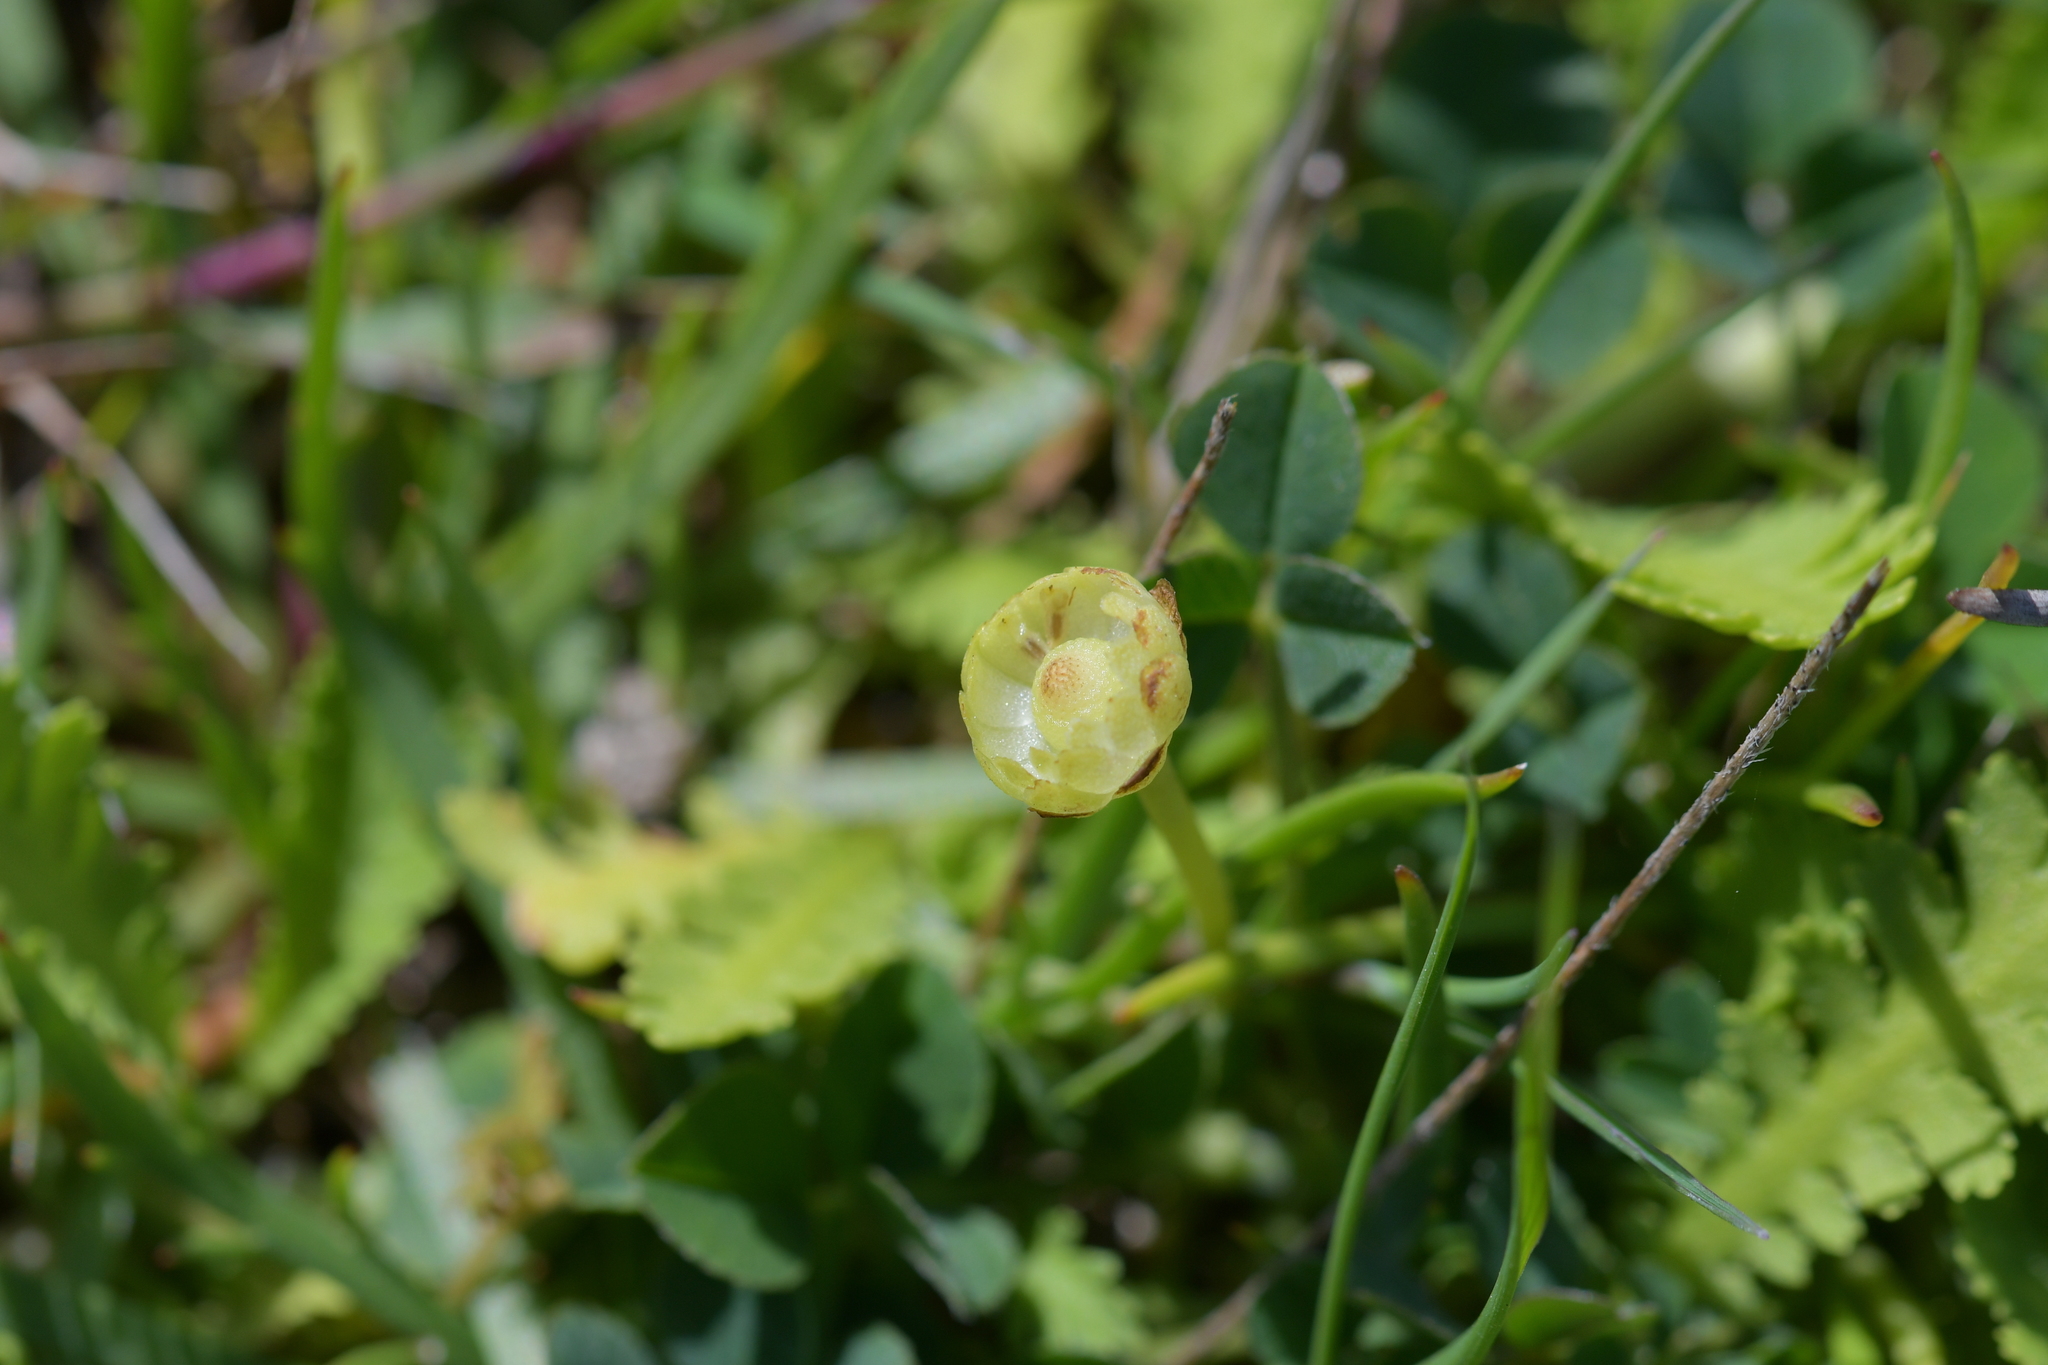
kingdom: Plantae
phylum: Tracheophyta
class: Magnoliopsida
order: Asterales
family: Asteraceae
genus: Leptinella
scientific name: Leptinella potentillina
